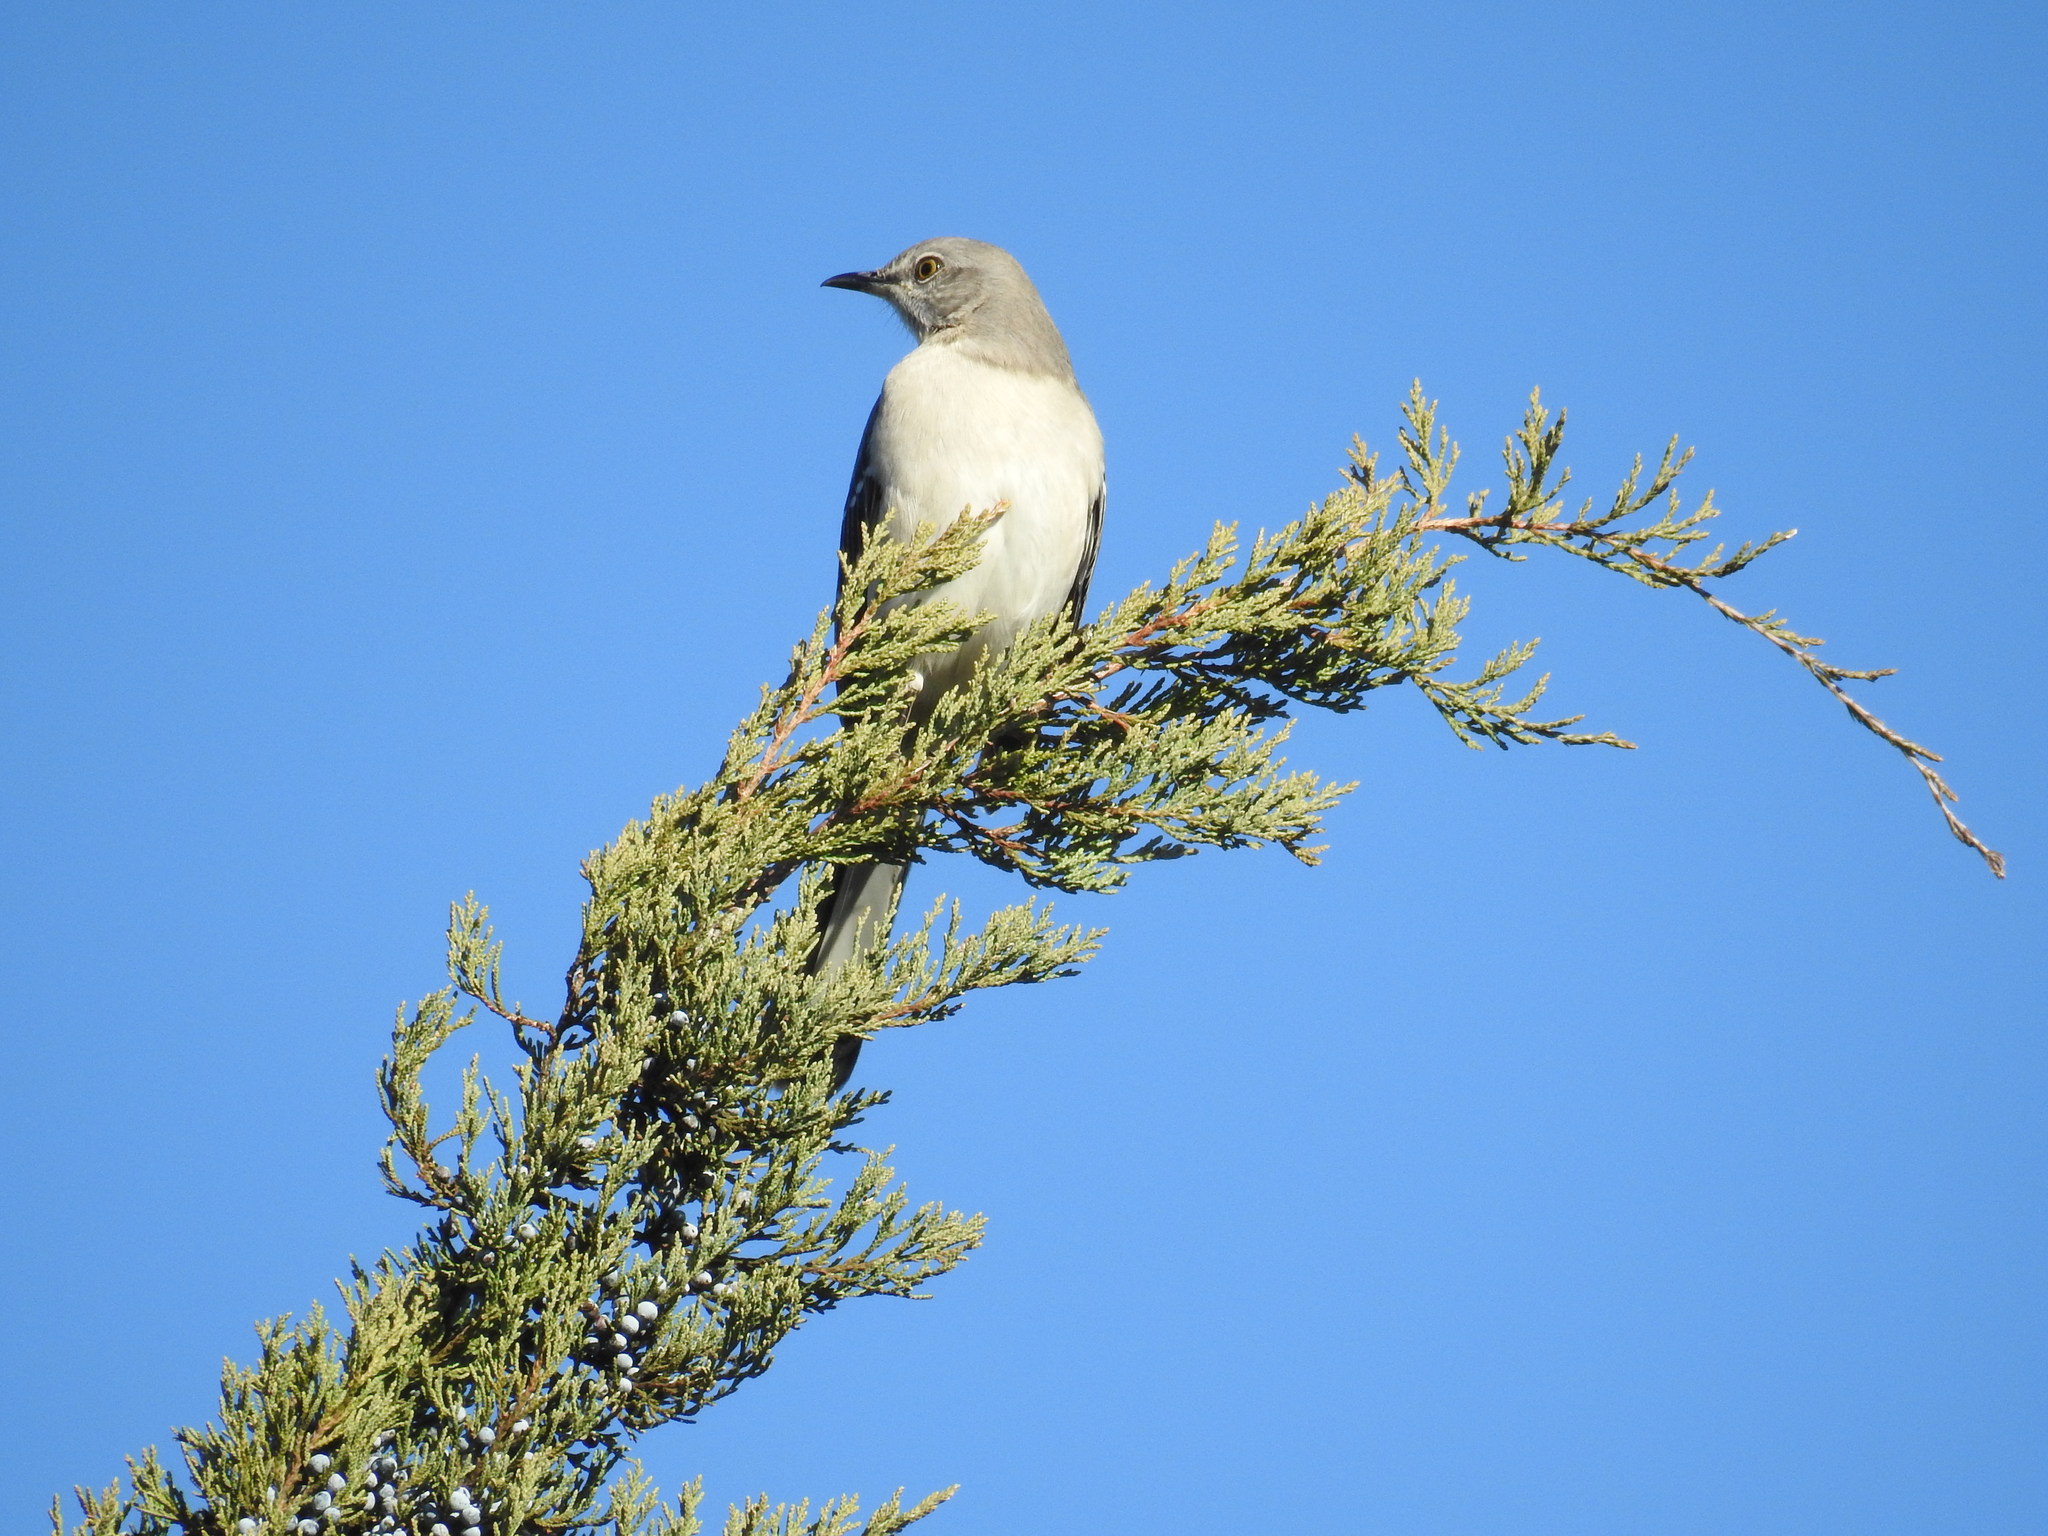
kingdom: Animalia
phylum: Chordata
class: Aves
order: Passeriformes
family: Mimidae
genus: Mimus
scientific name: Mimus polyglottos
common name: Northern mockingbird
